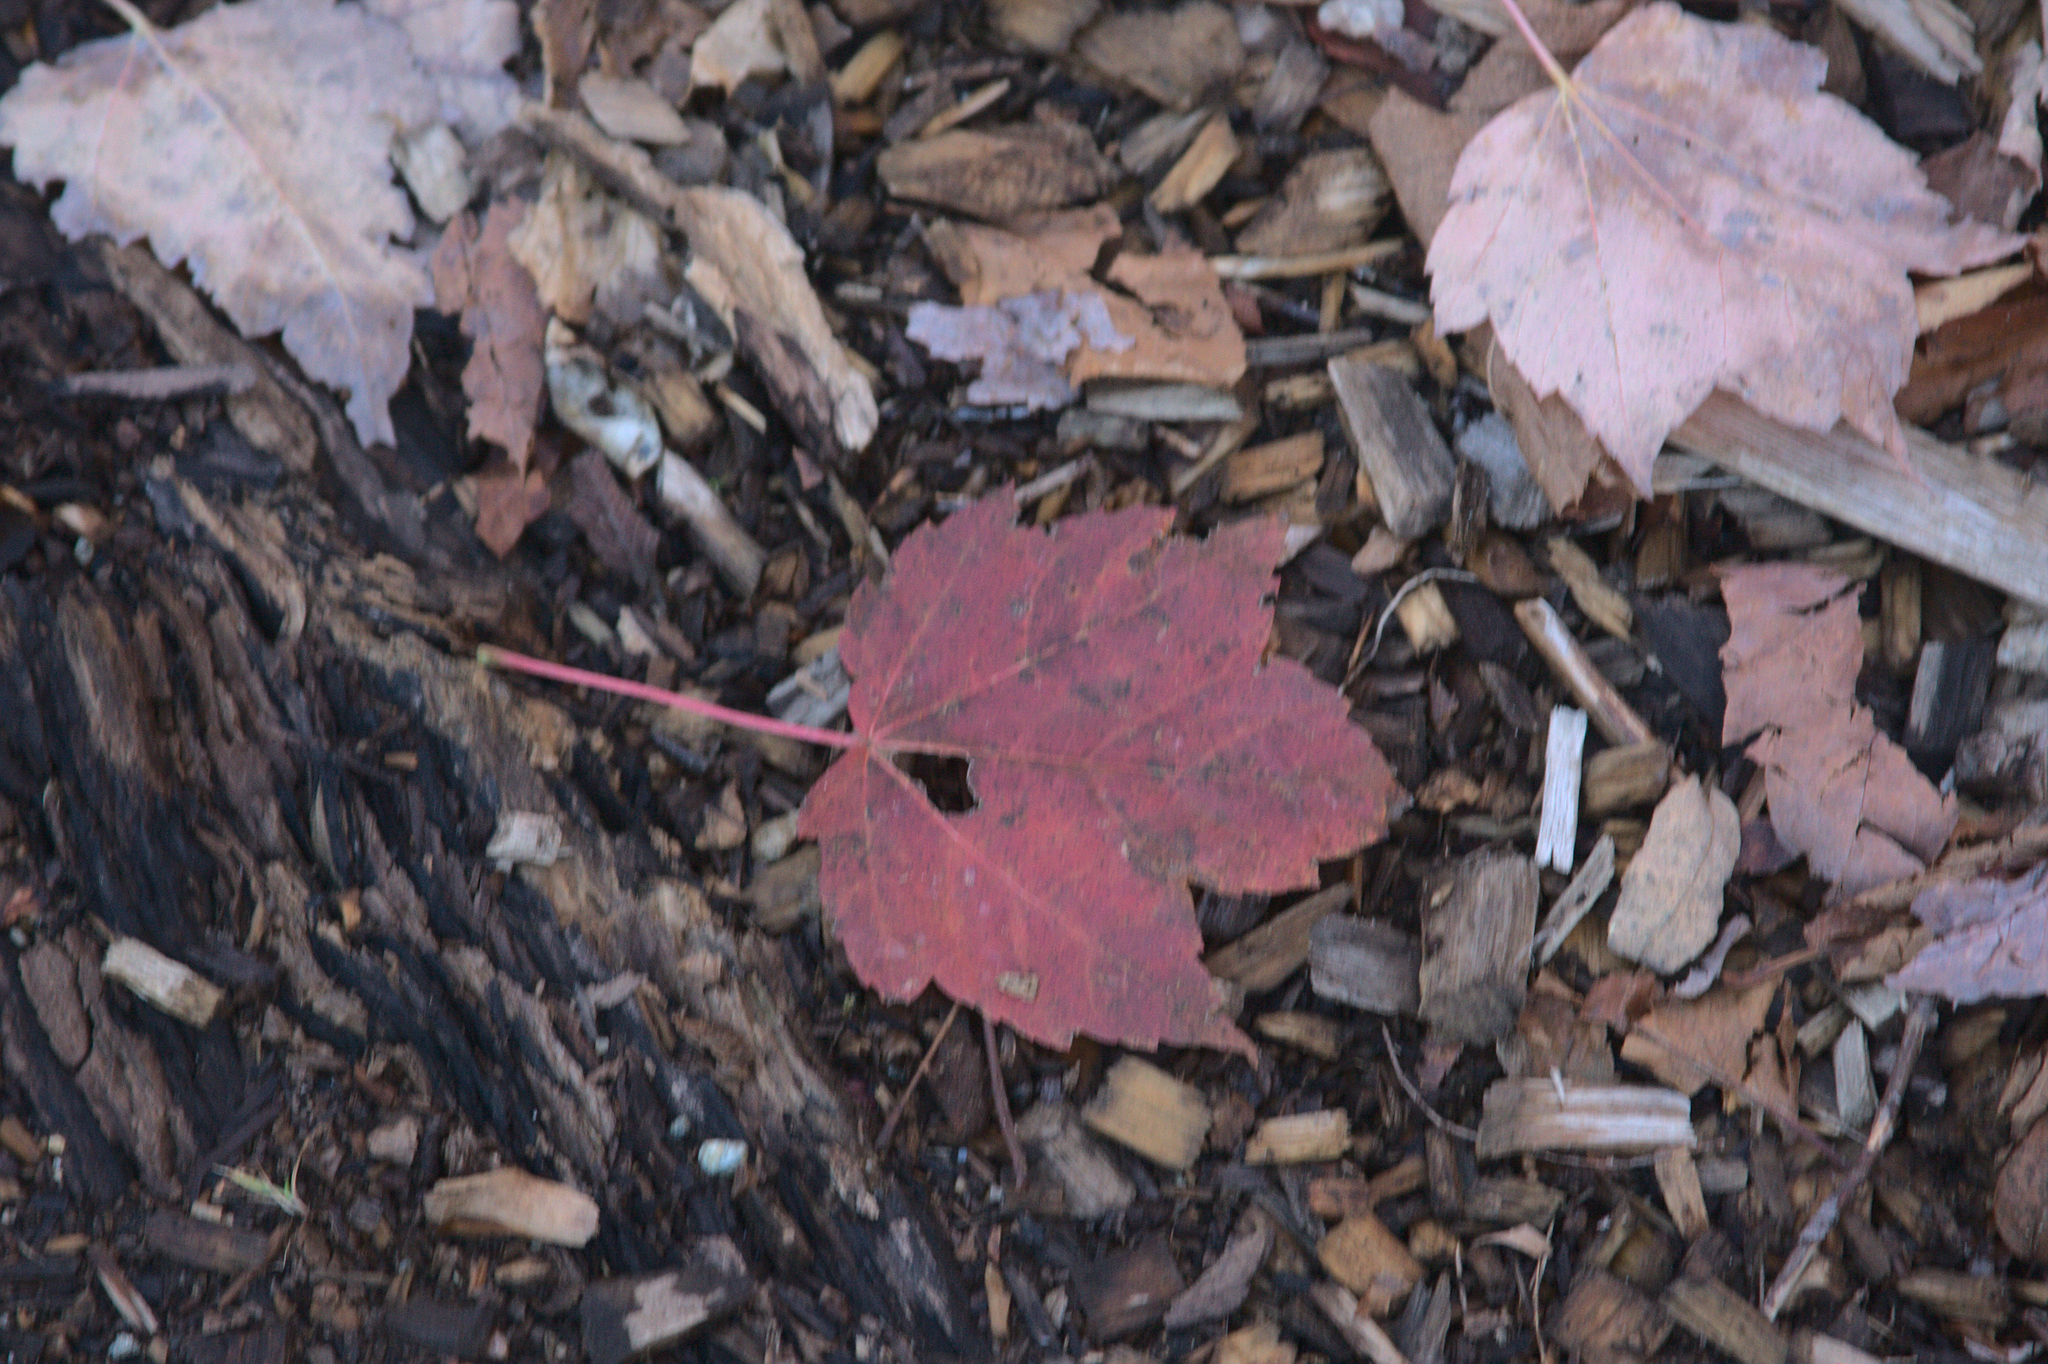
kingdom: Plantae
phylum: Tracheophyta
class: Magnoliopsida
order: Sapindales
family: Sapindaceae
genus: Acer
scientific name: Acer rubrum
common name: Red maple
